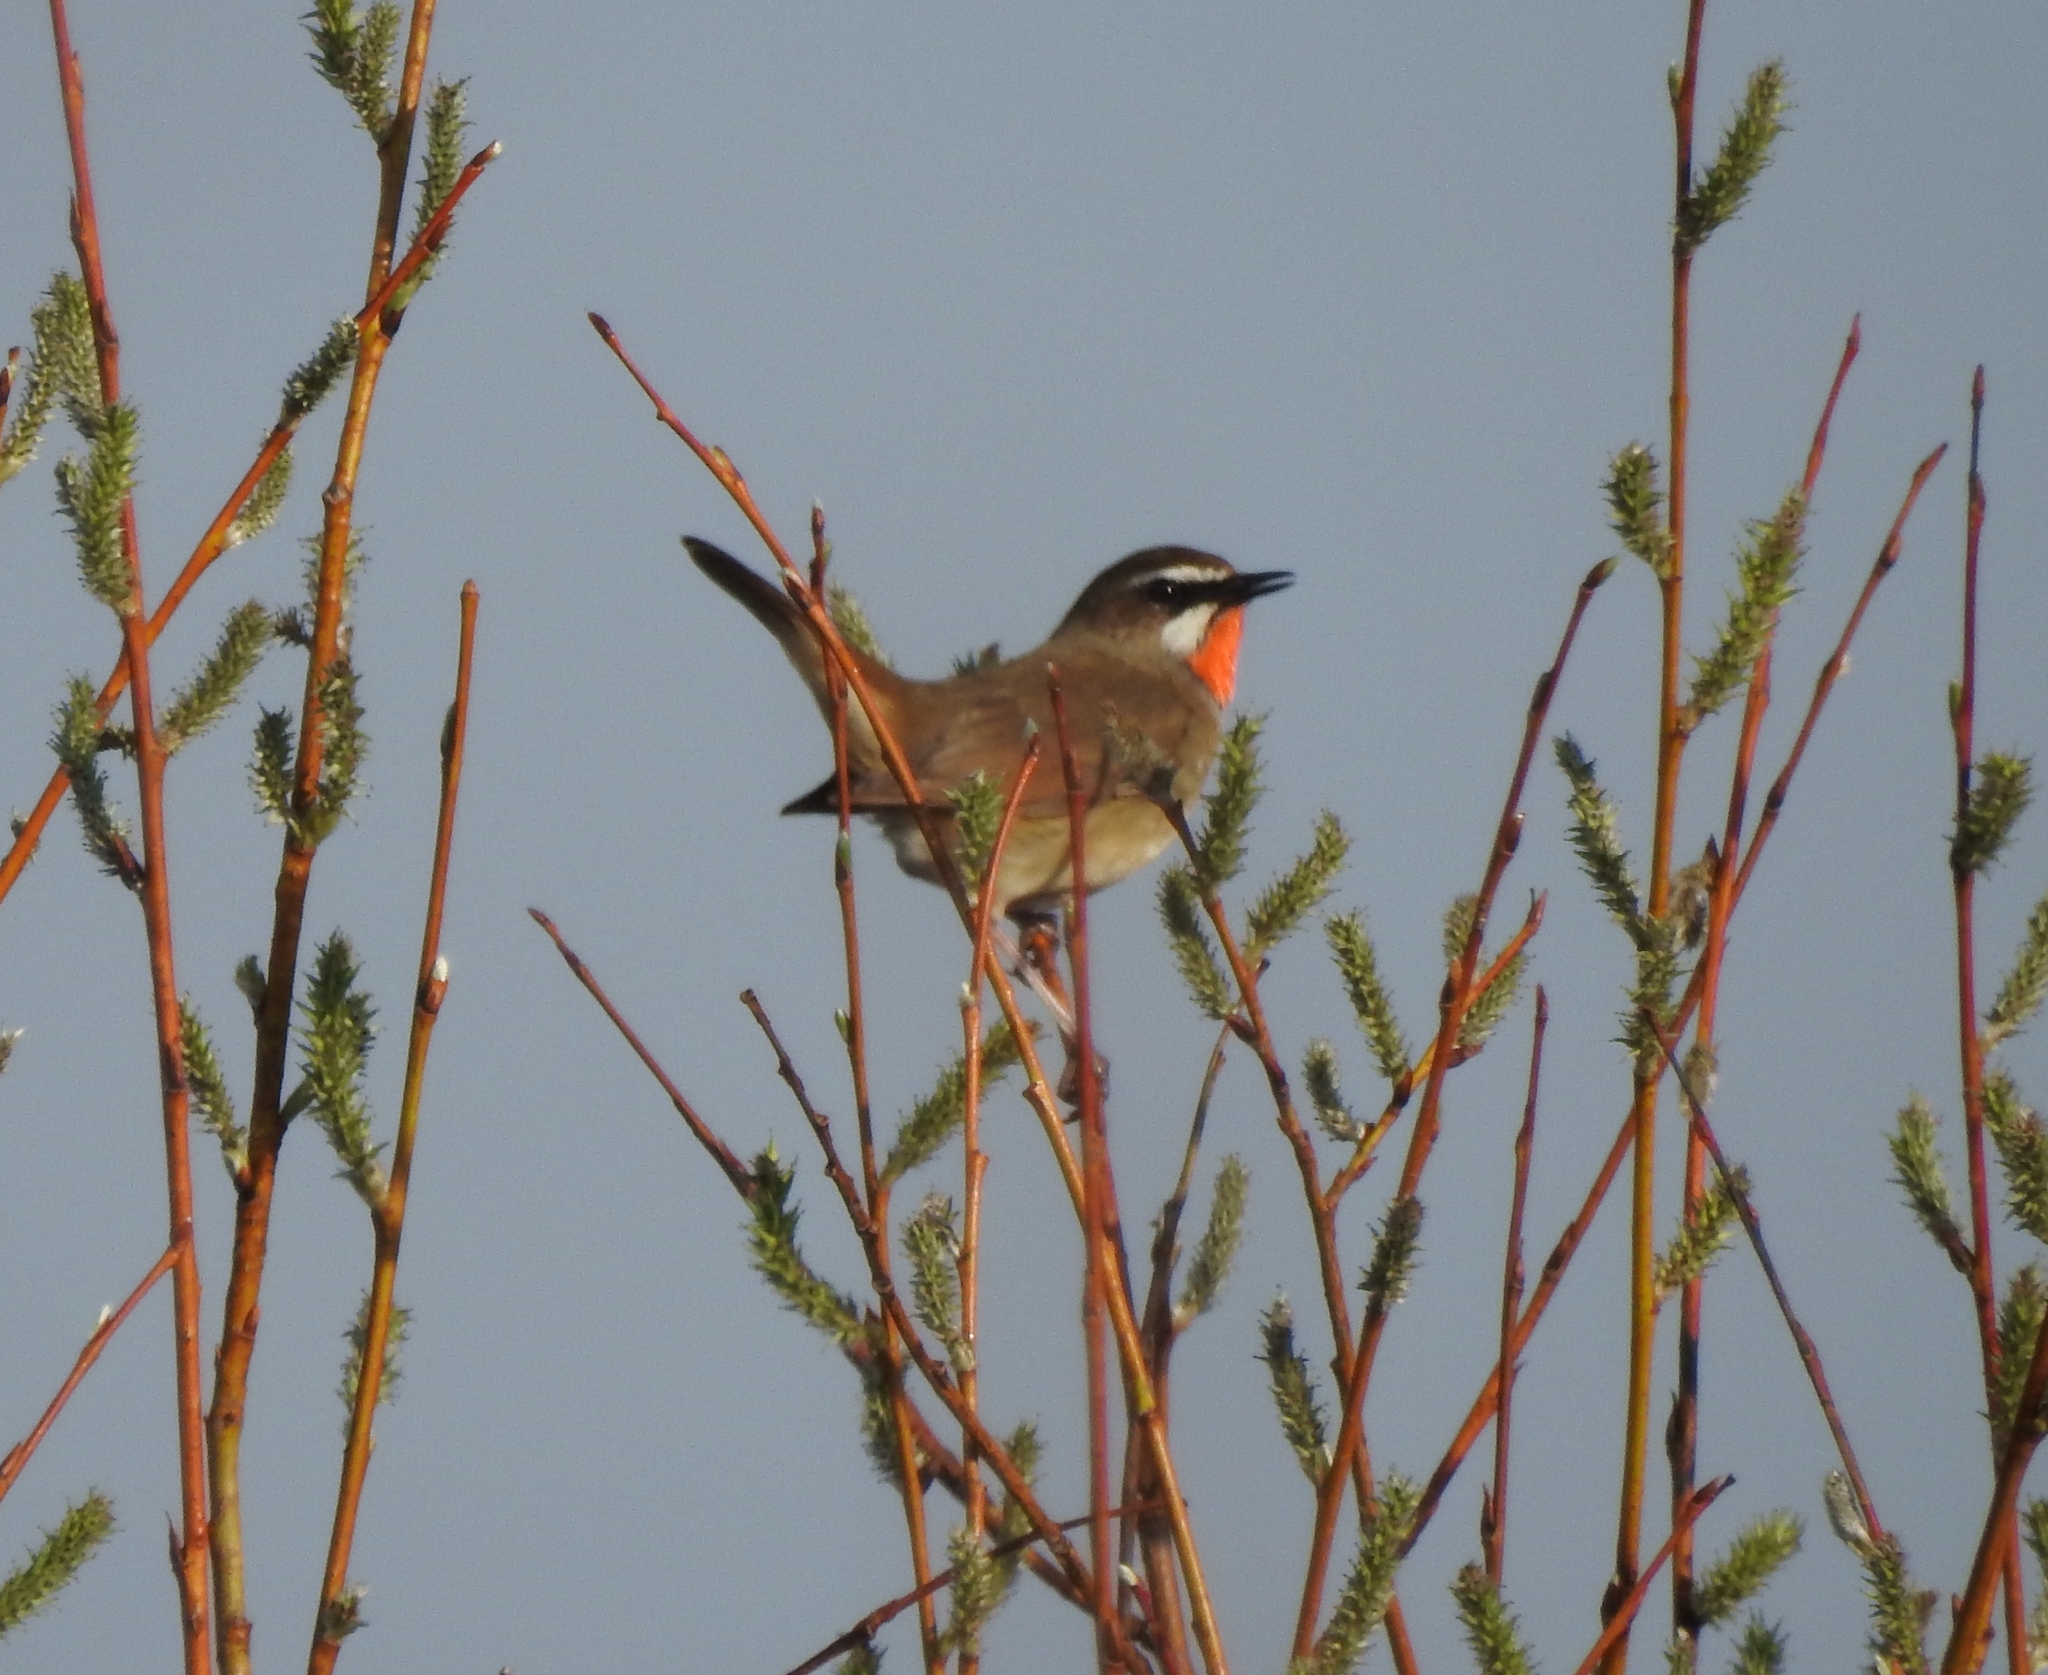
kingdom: Animalia
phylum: Chordata
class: Aves
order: Passeriformes
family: Muscicapidae
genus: Luscinia
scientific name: Luscinia calliope
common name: Siberian rubythroat
